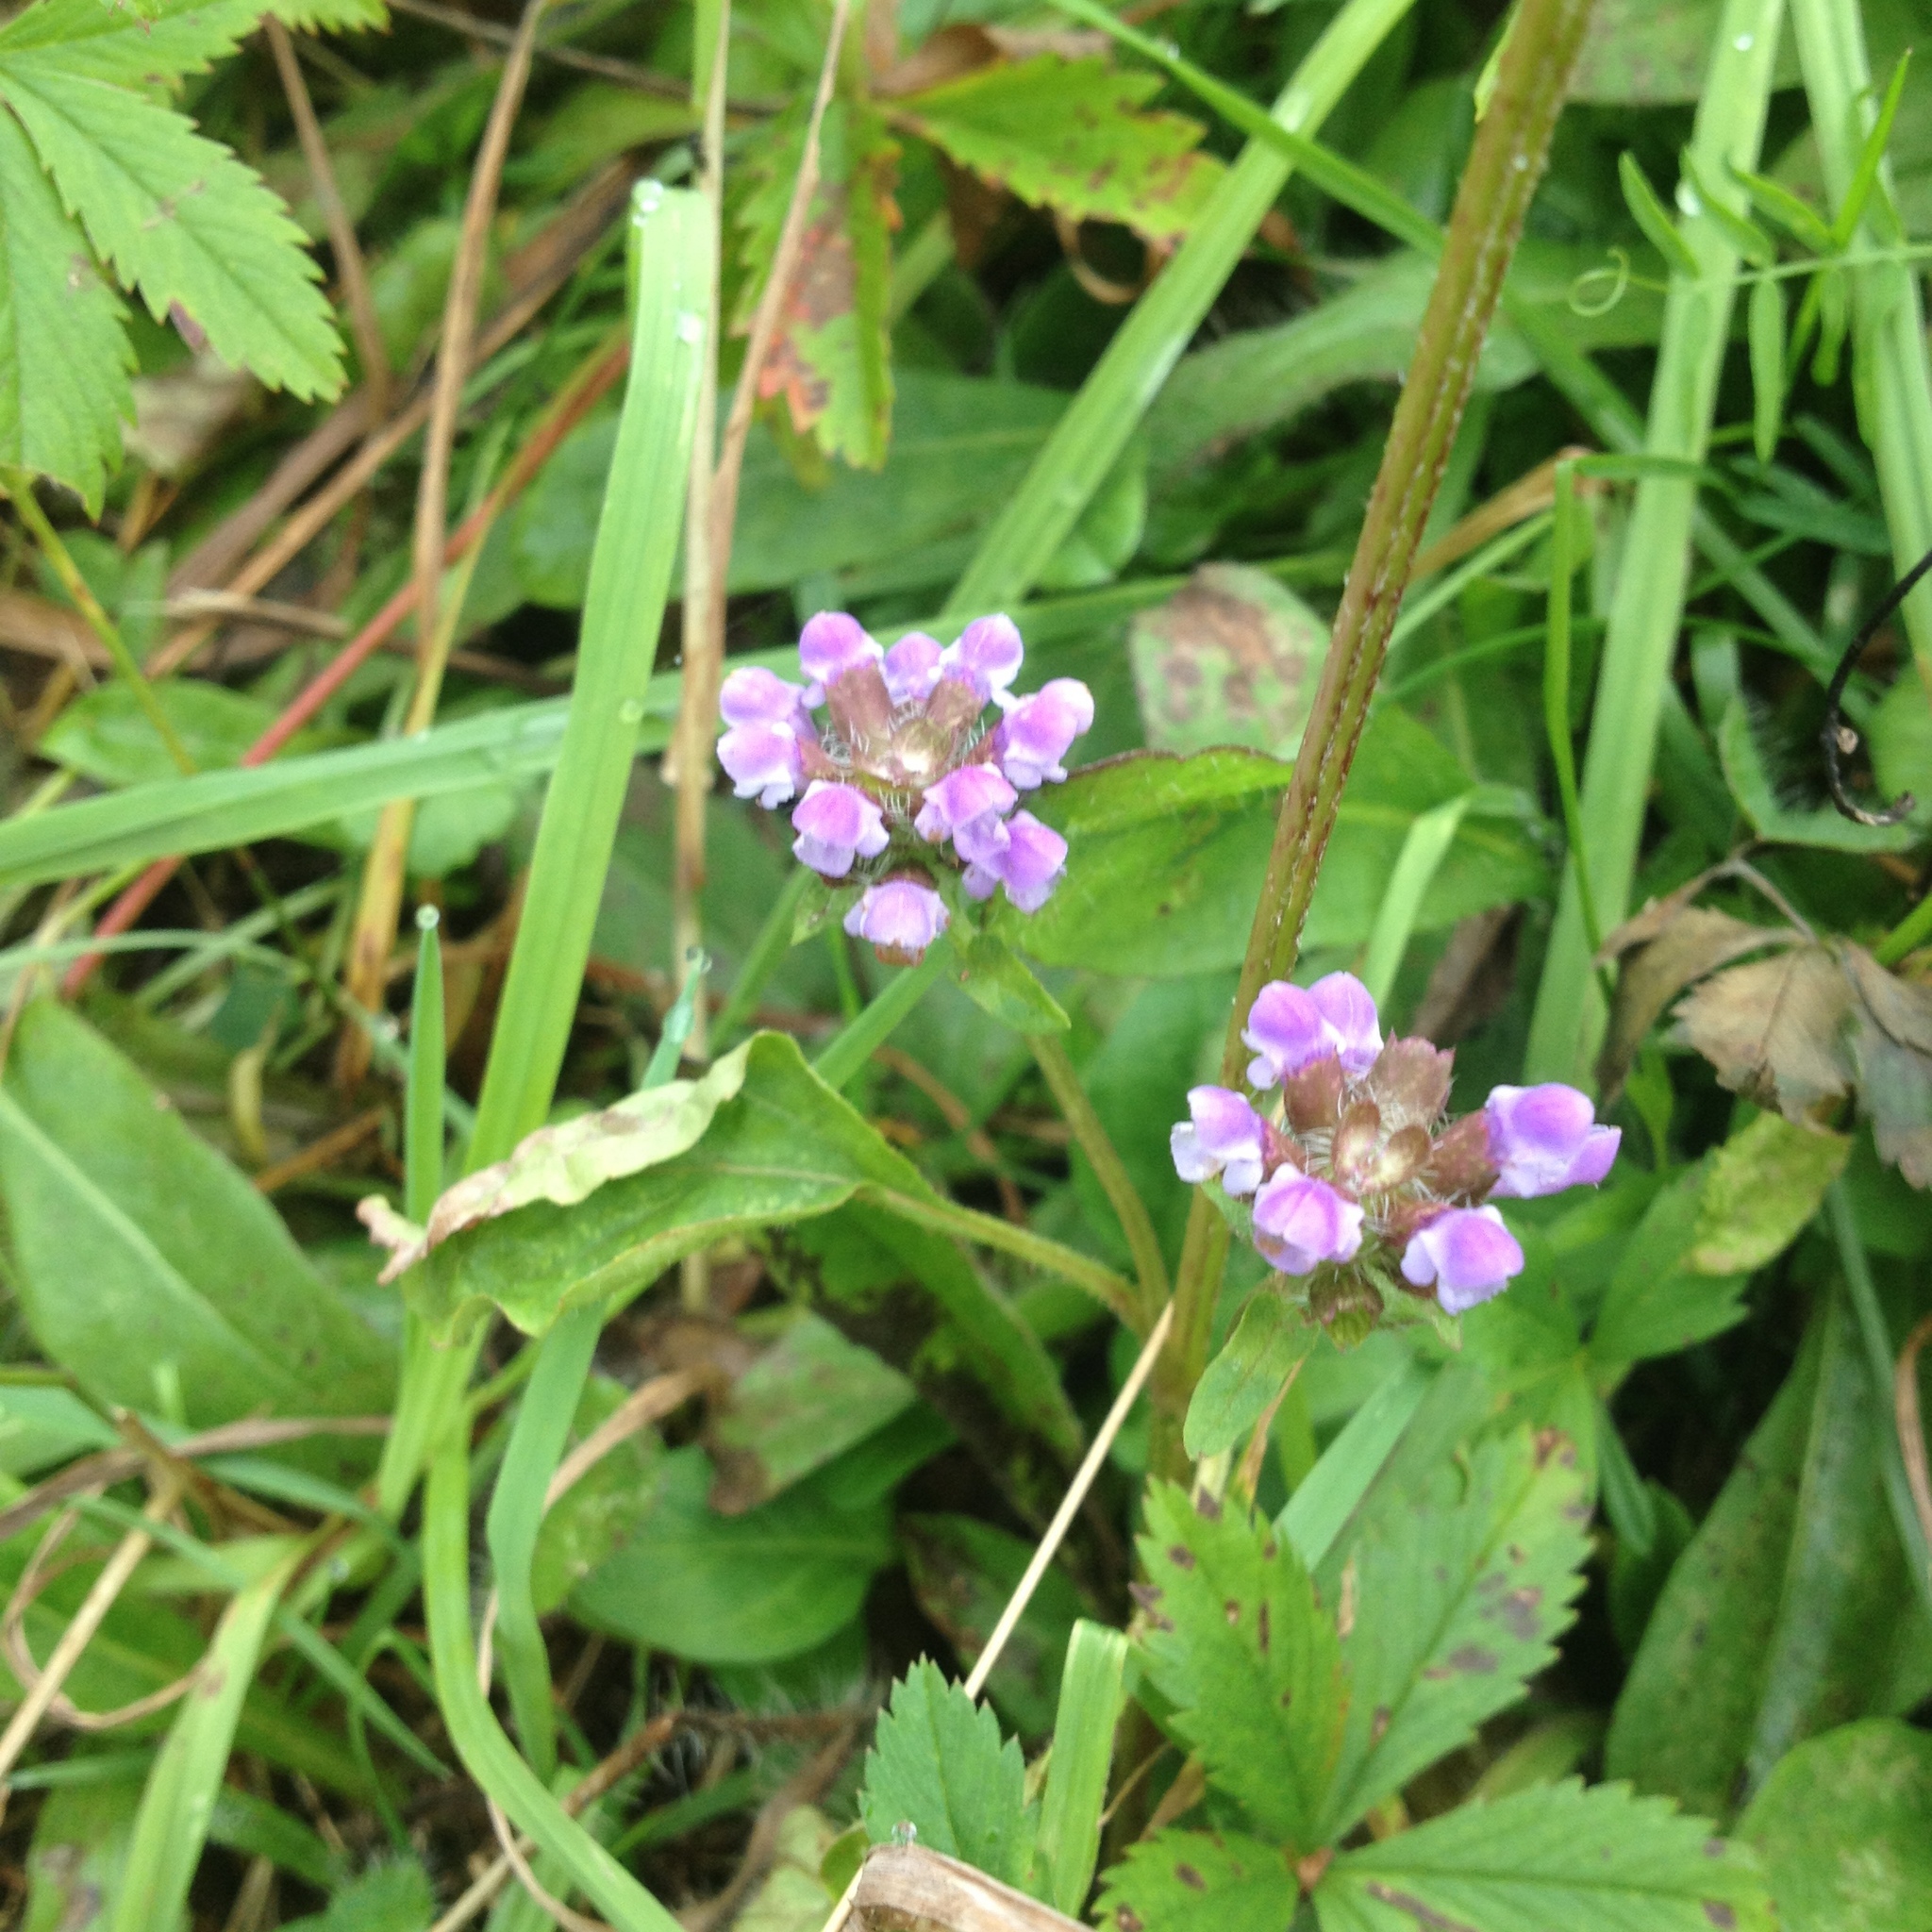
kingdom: Plantae
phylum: Tracheophyta
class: Magnoliopsida
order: Lamiales
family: Lamiaceae
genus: Prunella
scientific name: Prunella vulgaris
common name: Heal-all
